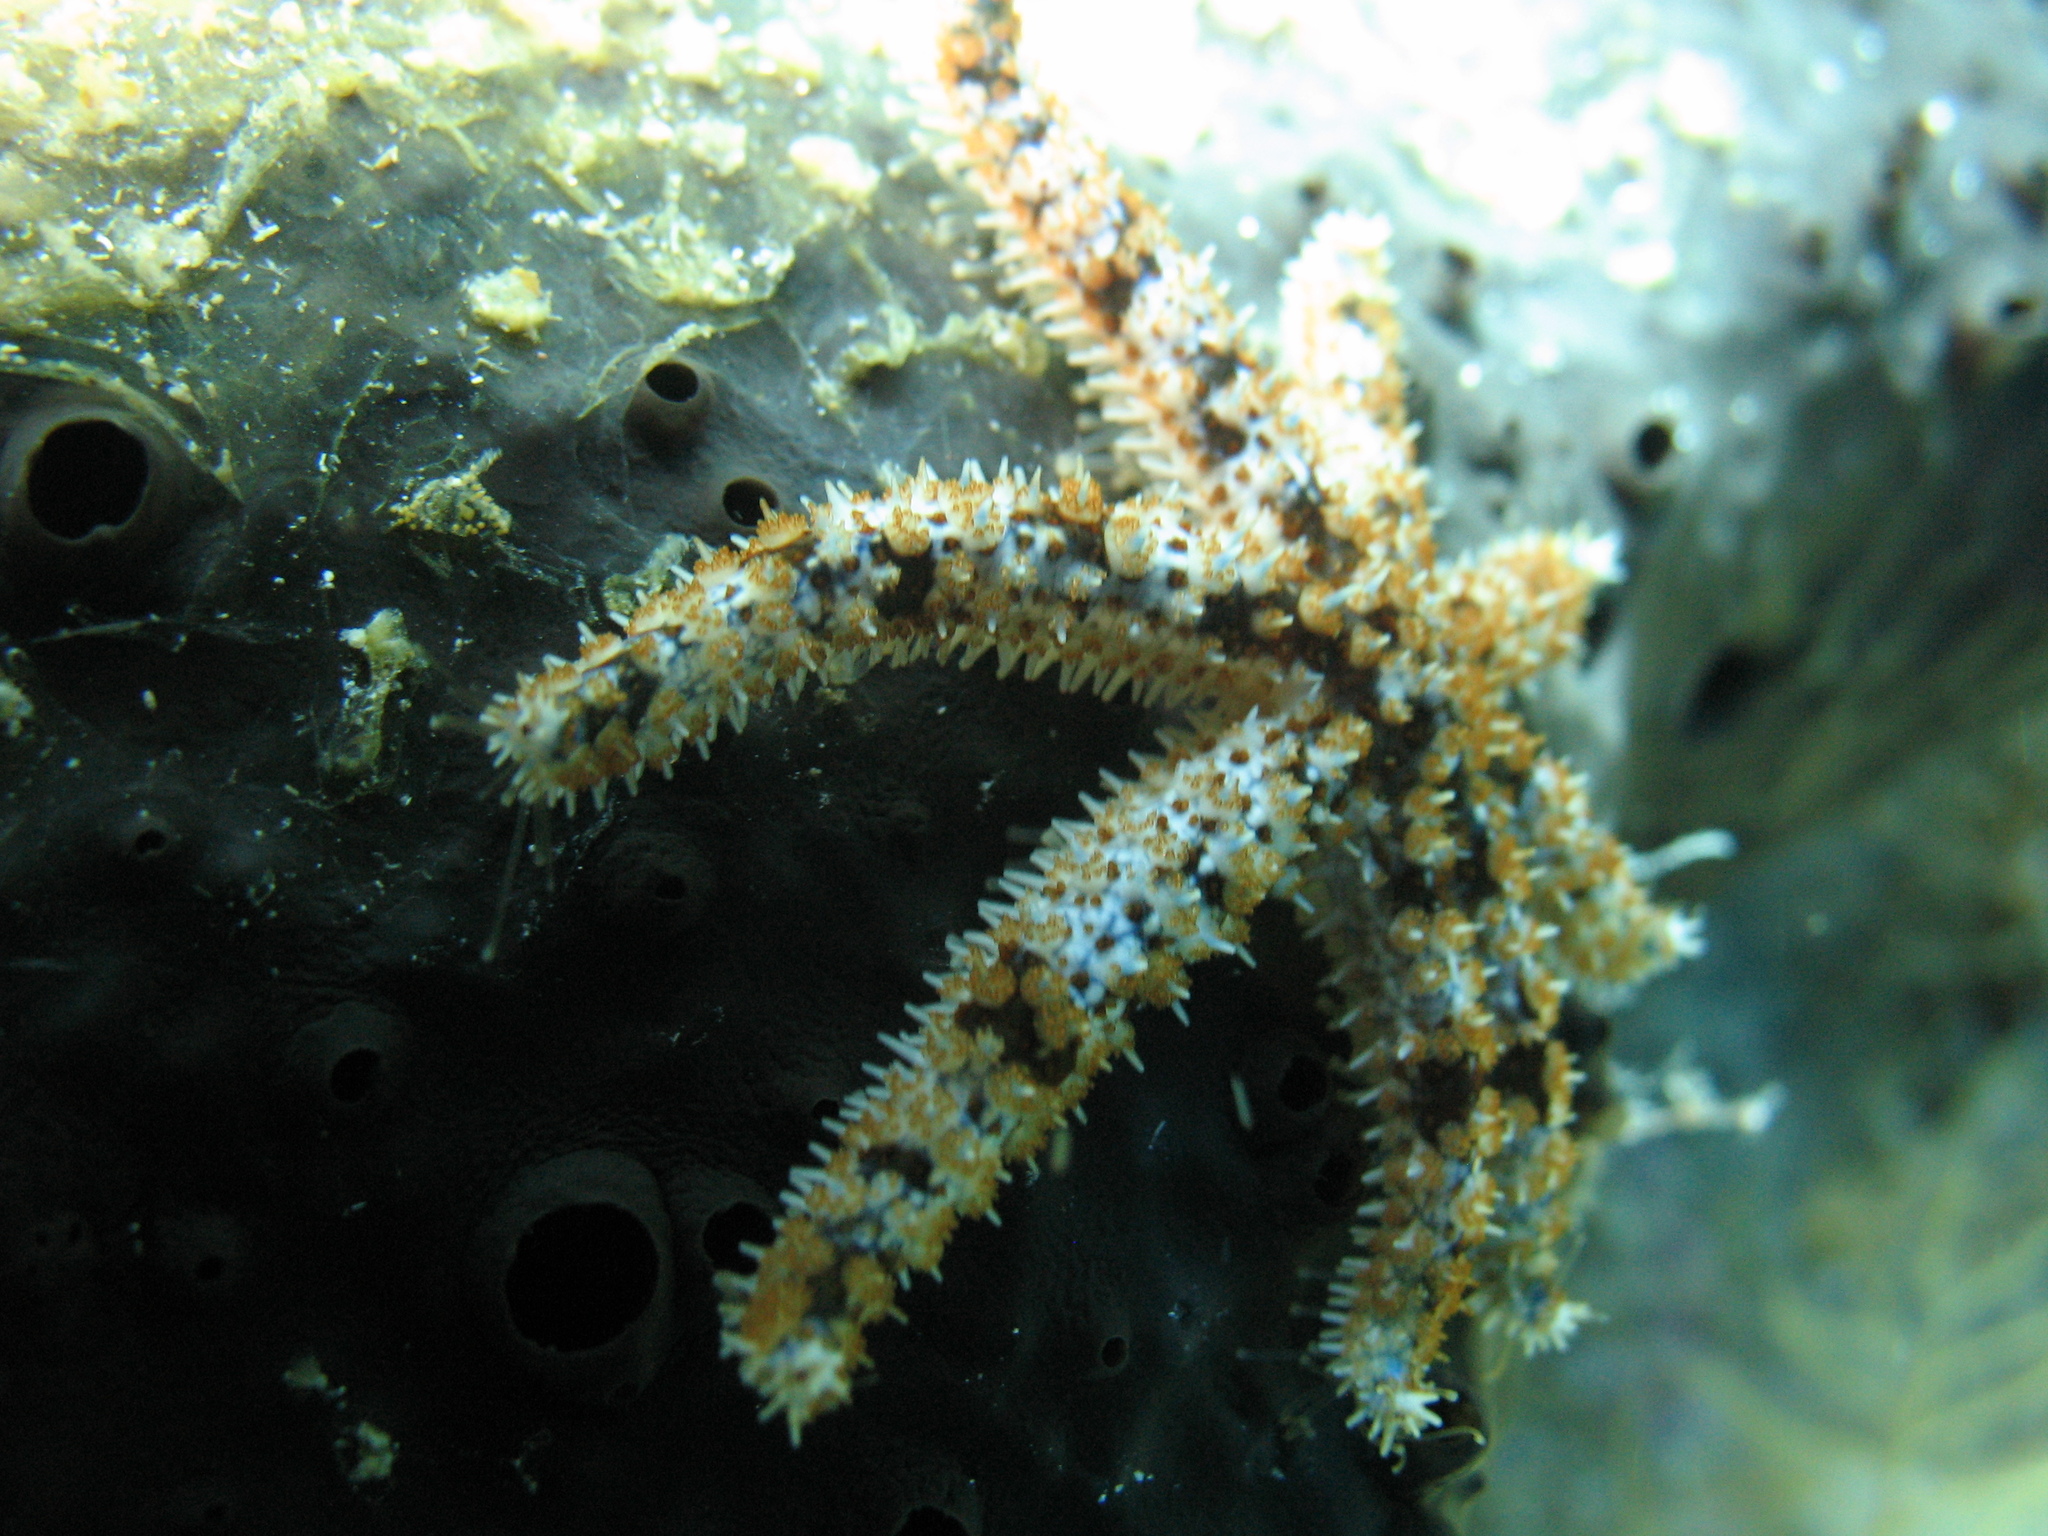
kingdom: Animalia
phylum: Echinodermata
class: Asteroidea
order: Forcipulatida
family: Asteriidae
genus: Coscinasterias
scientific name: Coscinasterias tenuispina
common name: Blue spiny starfish
